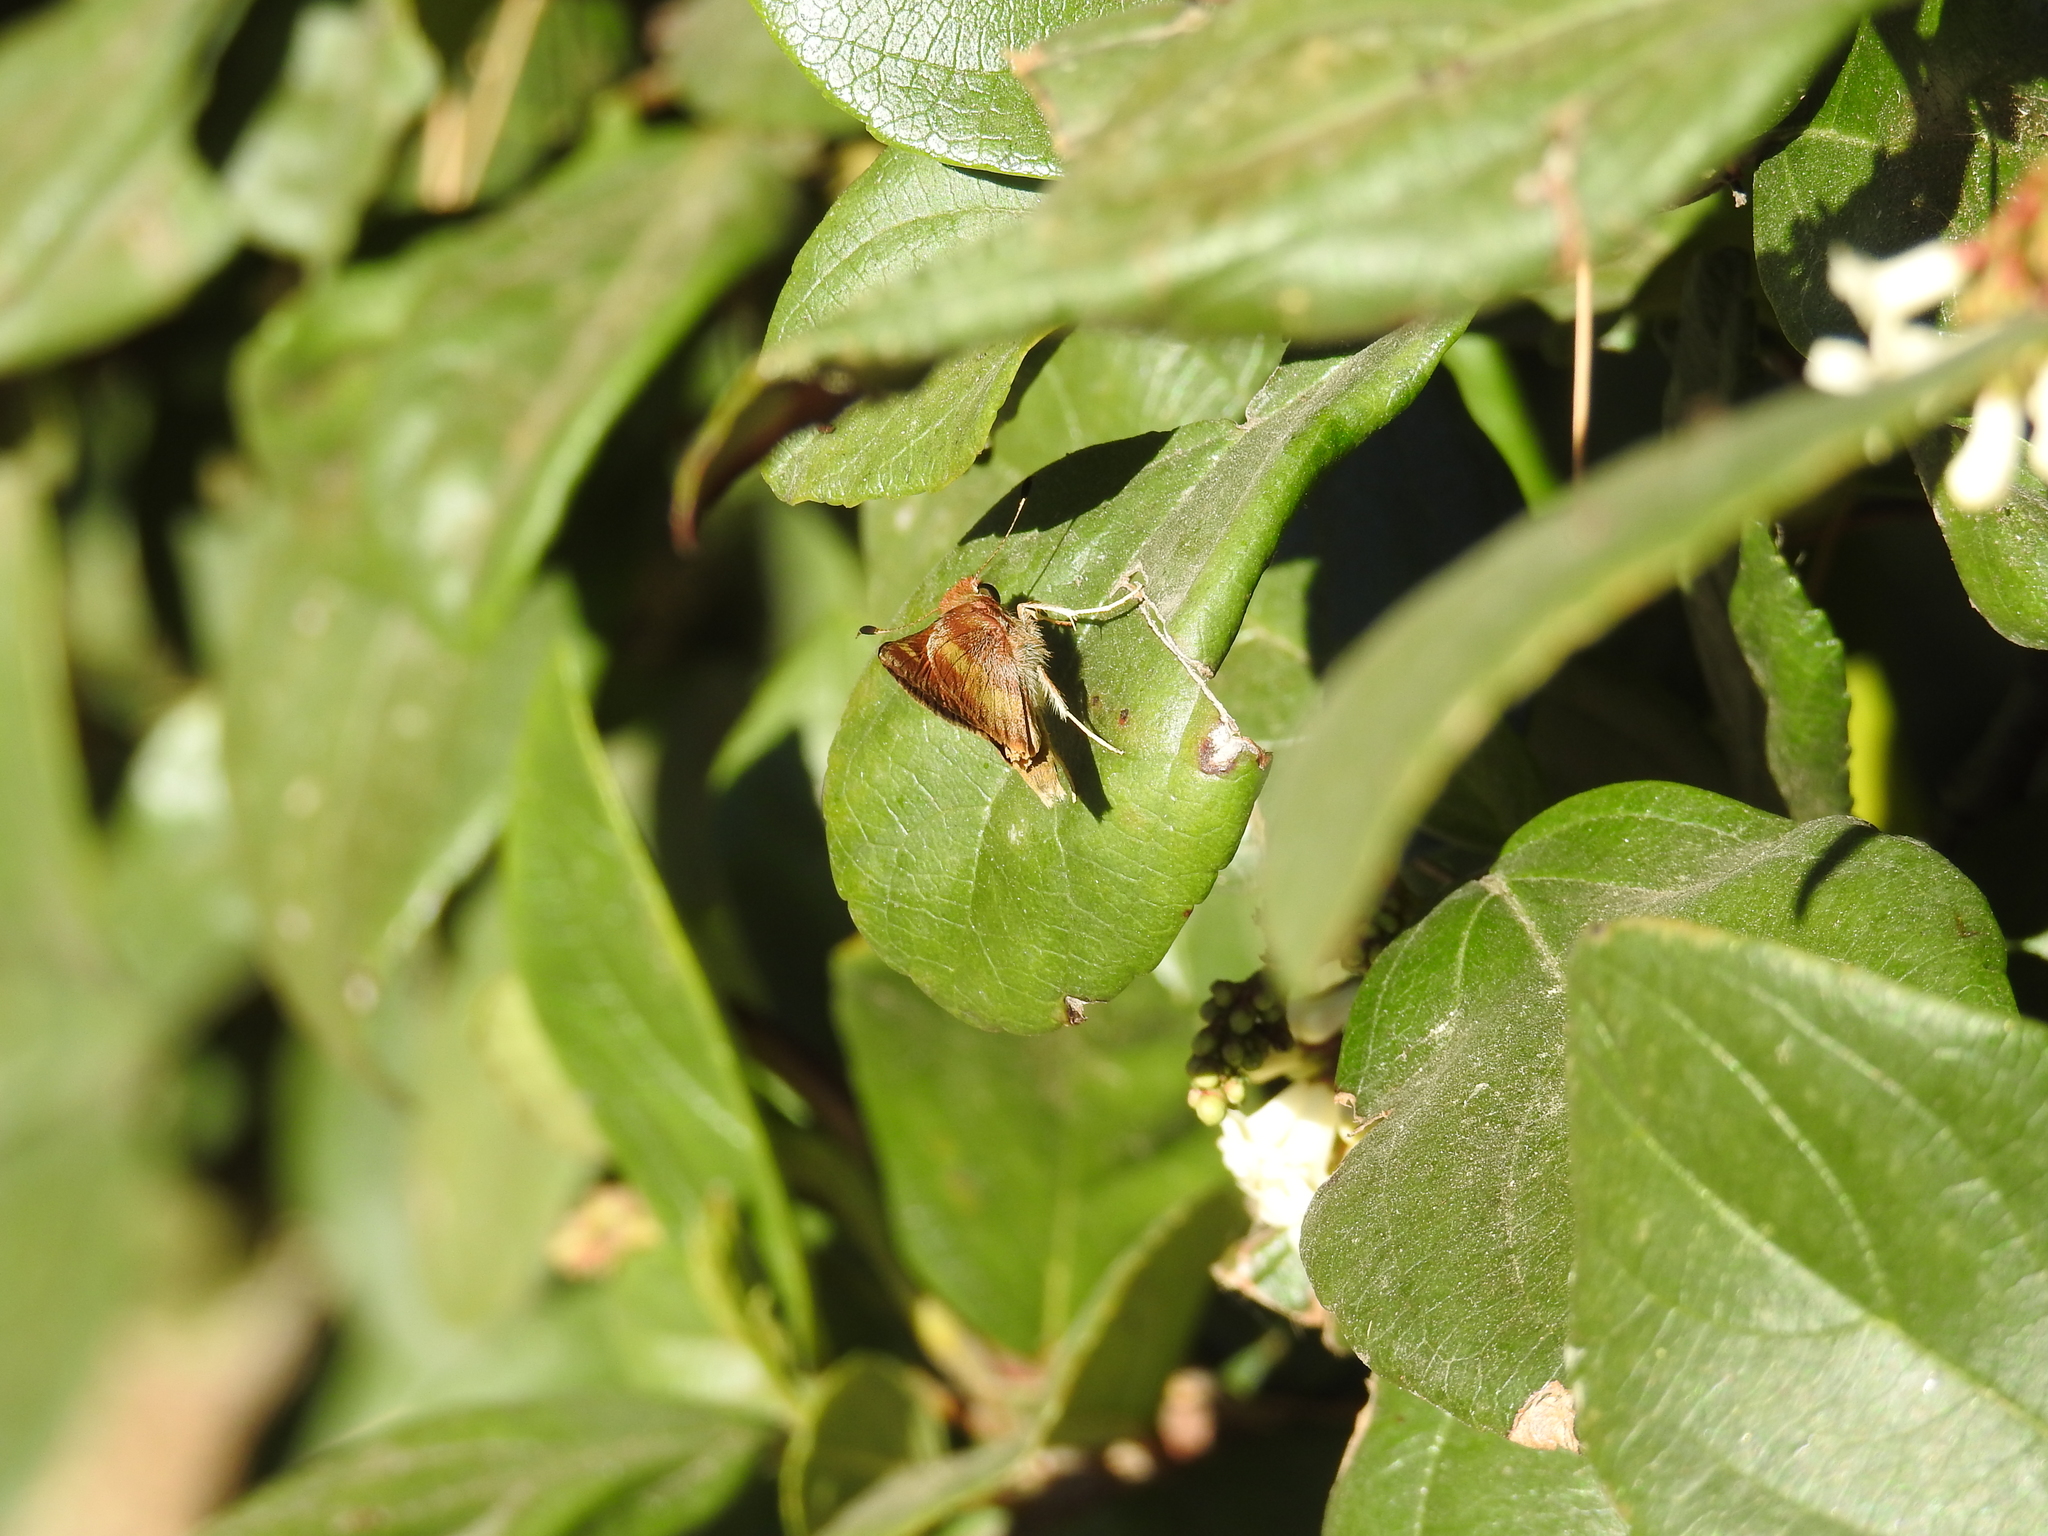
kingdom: Animalia
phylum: Arthropoda
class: Insecta
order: Lepidoptera
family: Hesperiidae
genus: Lon
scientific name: Lon melane
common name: Umber skipper
